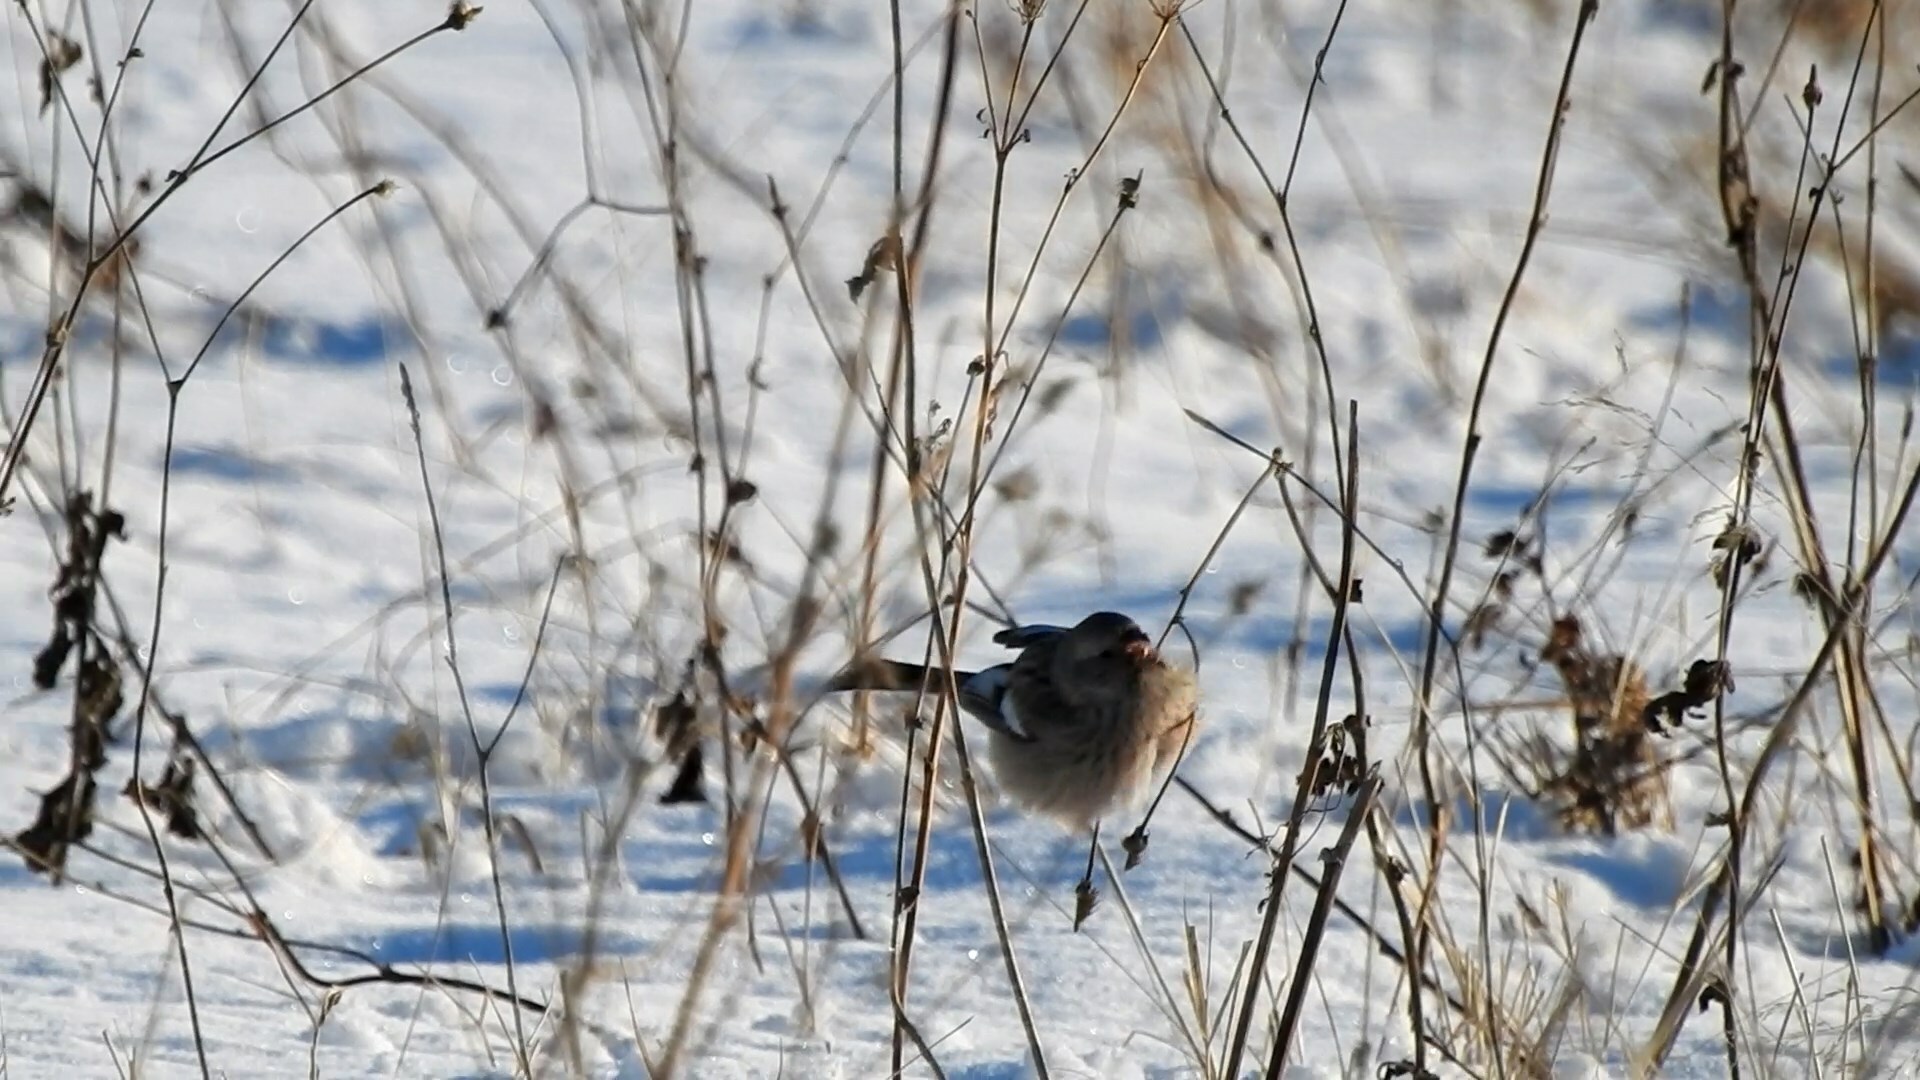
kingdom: Animalia
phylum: Chordata
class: Aves
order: Passeriformes
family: Fringillidae
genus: Carpodacus
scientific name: Carpodacus sibiricus
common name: Long-tailed rosefinch
